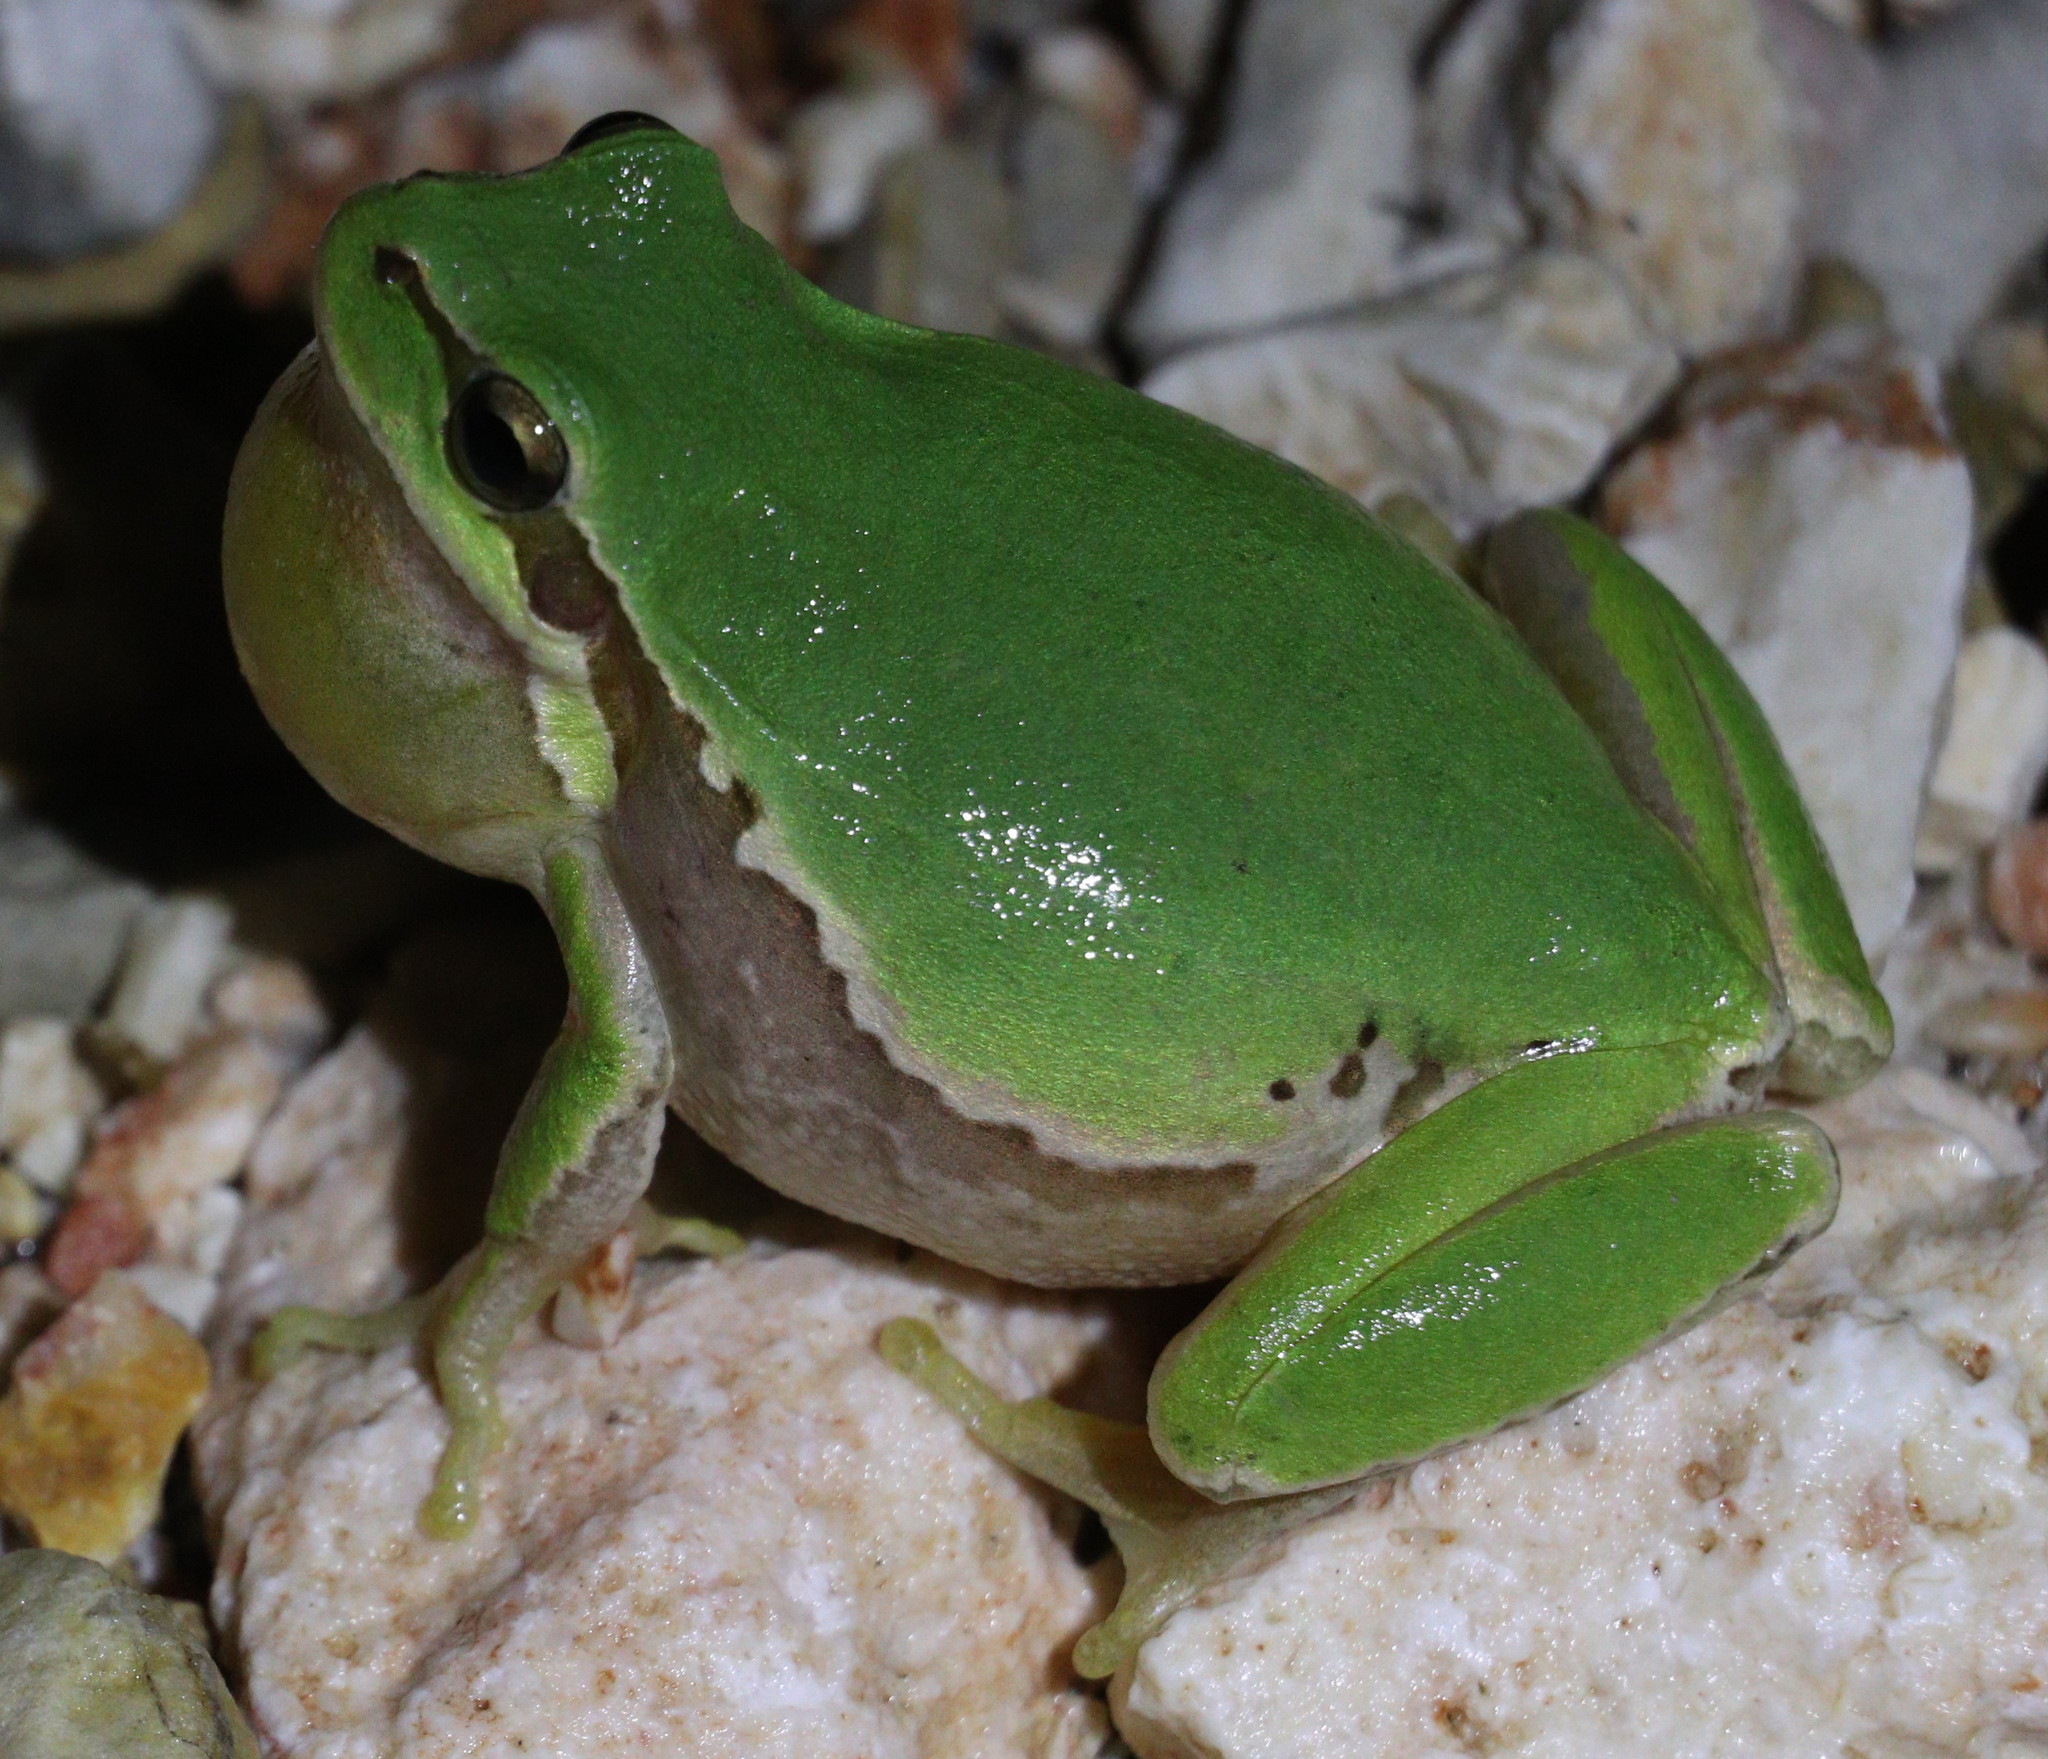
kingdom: Animalia
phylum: Chordata
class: Amphibia
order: Anura
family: Hylidae
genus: Hyla
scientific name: Hyla savignyi
